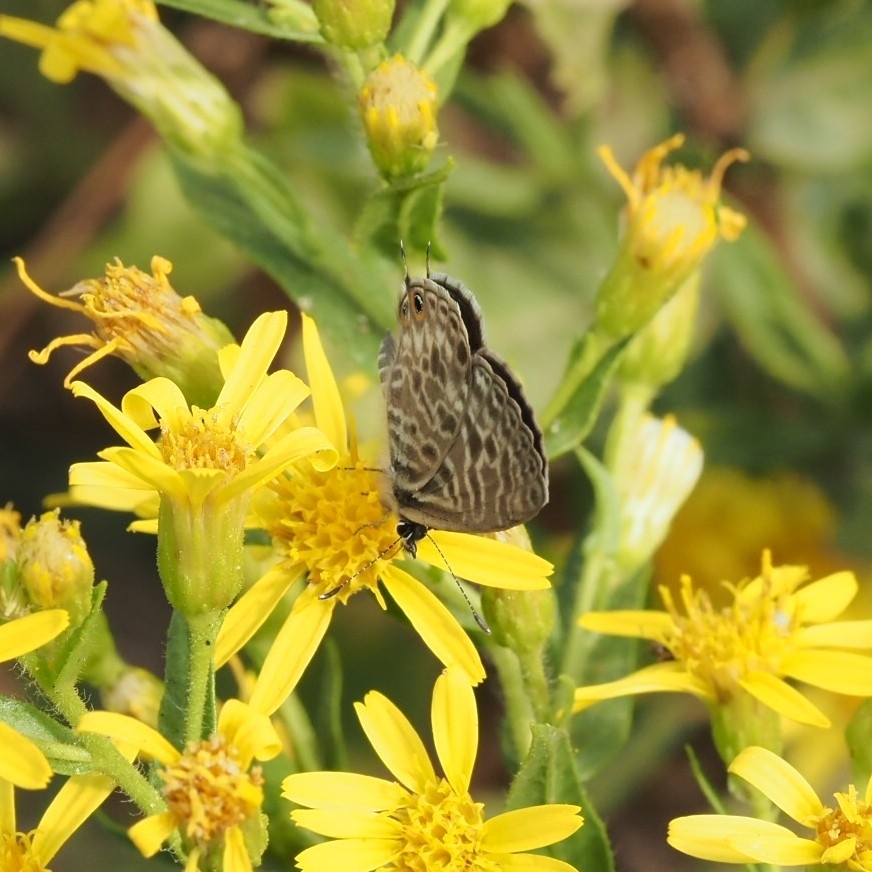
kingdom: Animalia
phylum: Arthropoda
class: Insecta
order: Lepidoptera
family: Lycaenidae
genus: Leptotes
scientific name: Leptotes pirithous
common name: Lang's short-tailed blue
